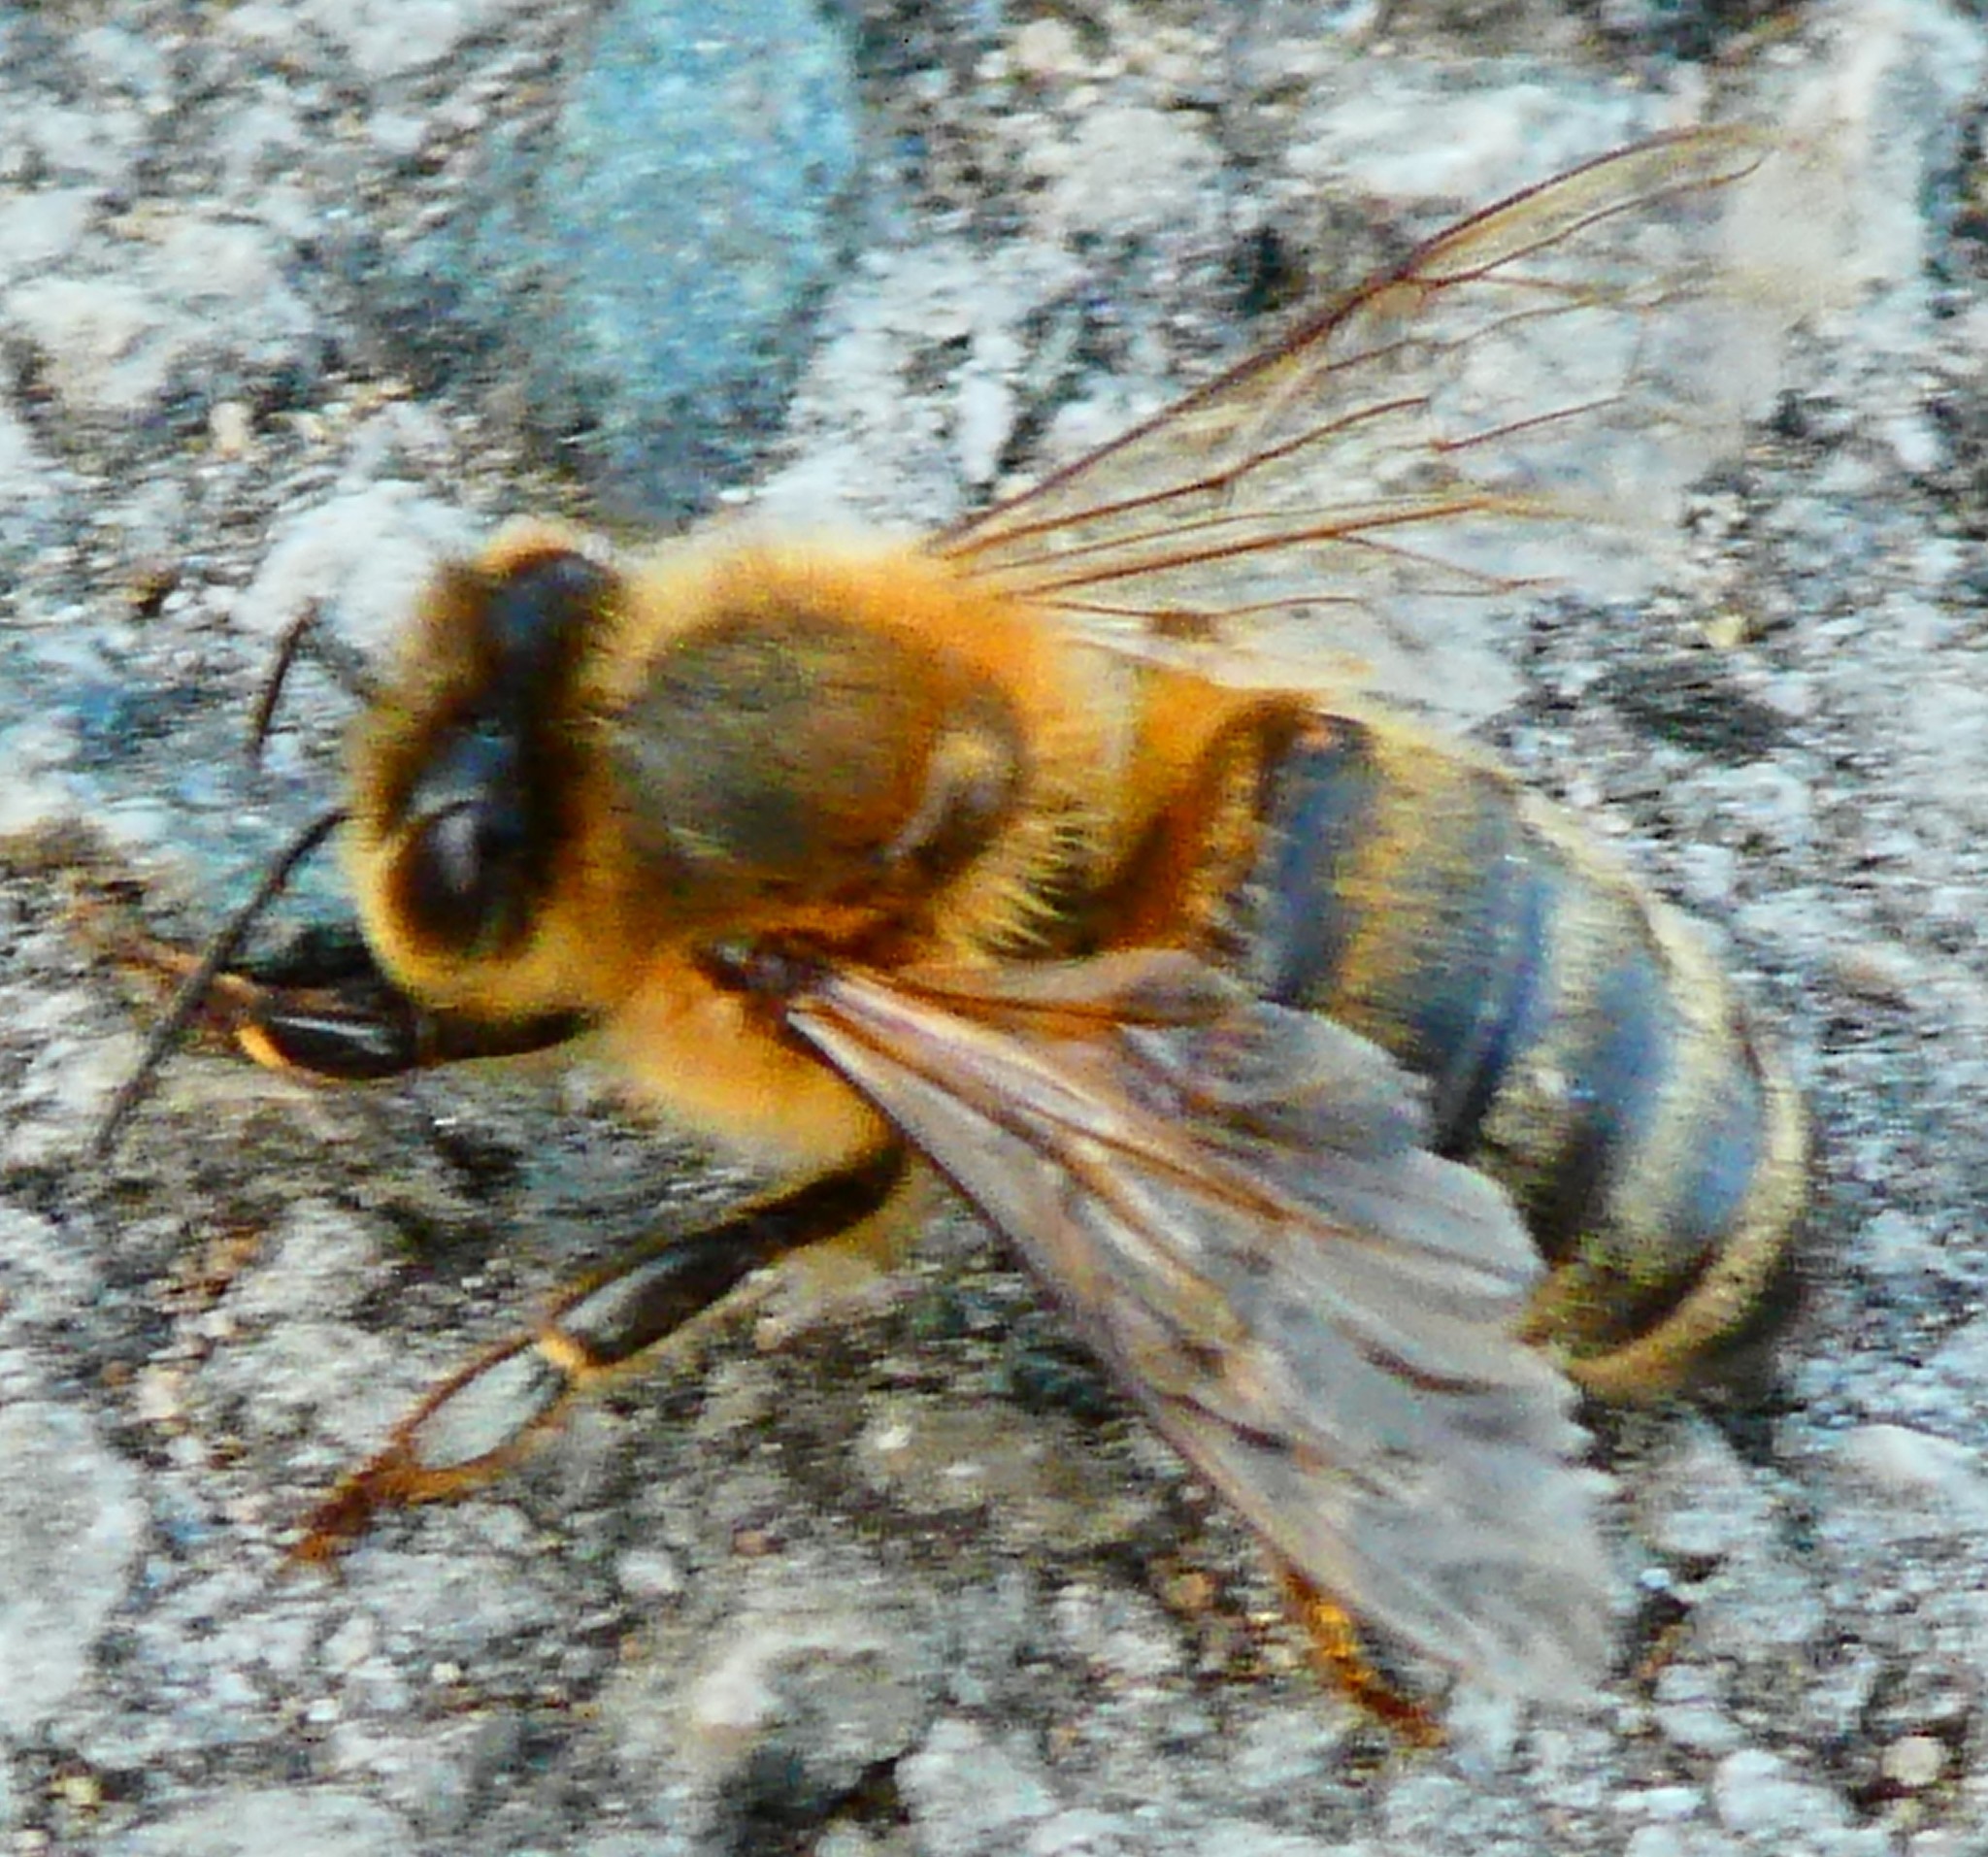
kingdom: Animalia
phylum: Arthropoda
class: Insecta
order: Hymenoptera
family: Apidae
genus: Apis
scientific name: Apis mellifera
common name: Honey bee
